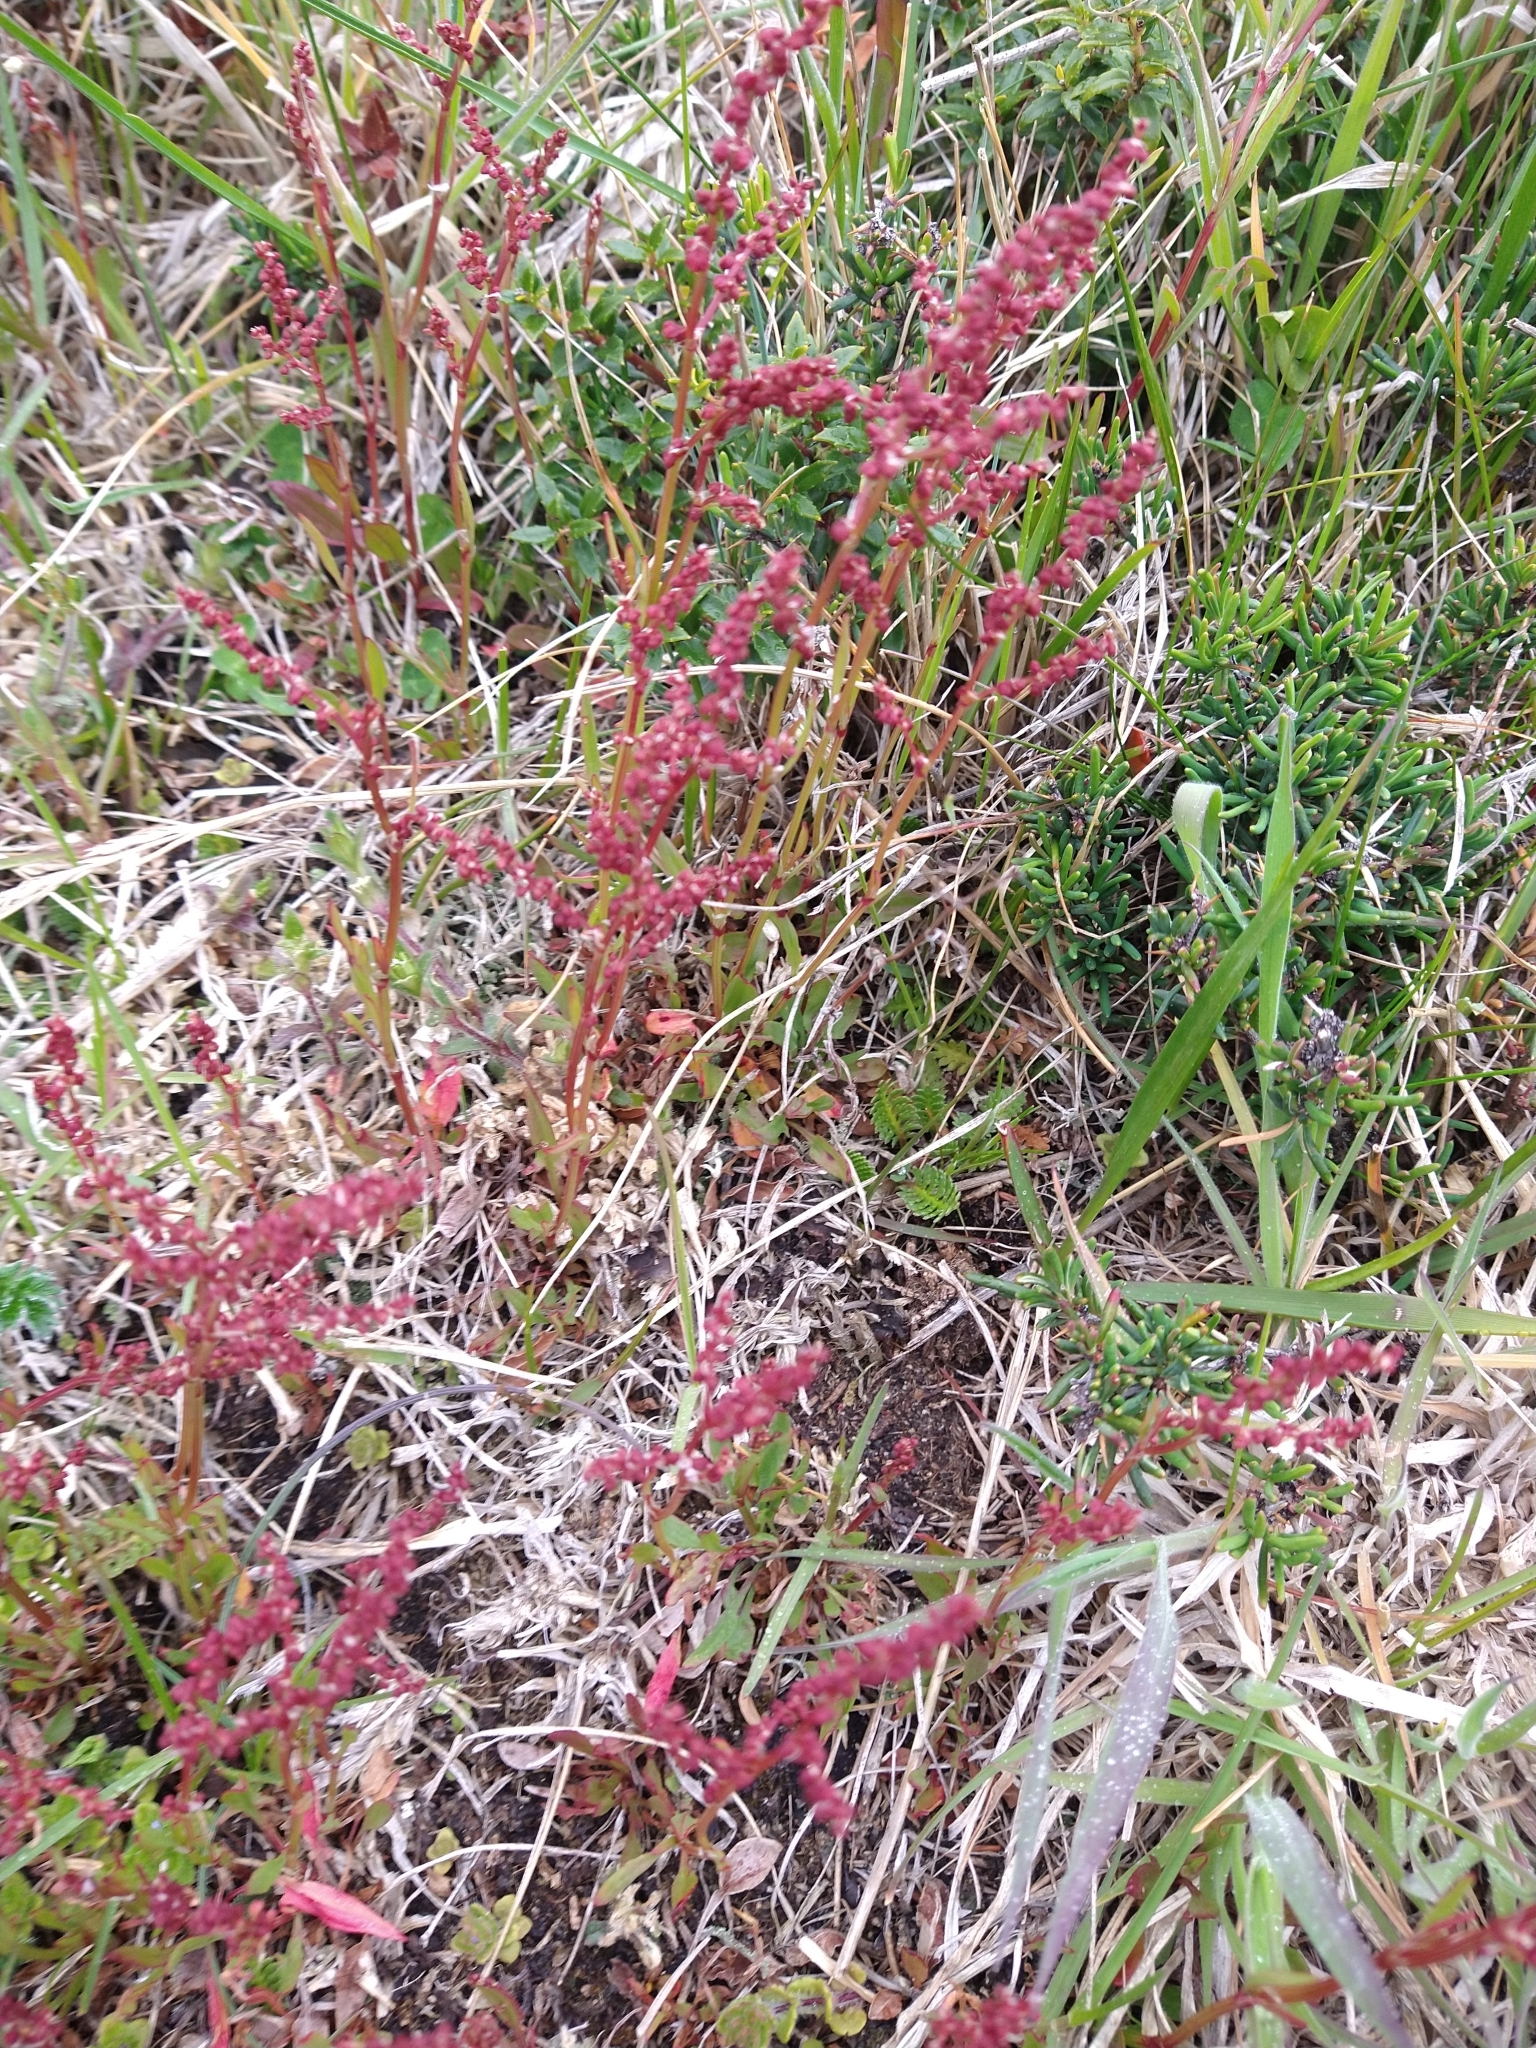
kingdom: Plantae
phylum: Tracheophyta
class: Magnoliopsida
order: Caryophyllales
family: Polygonaceae
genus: Rumex
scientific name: Rumex acetosella
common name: Common sheep sorrel
